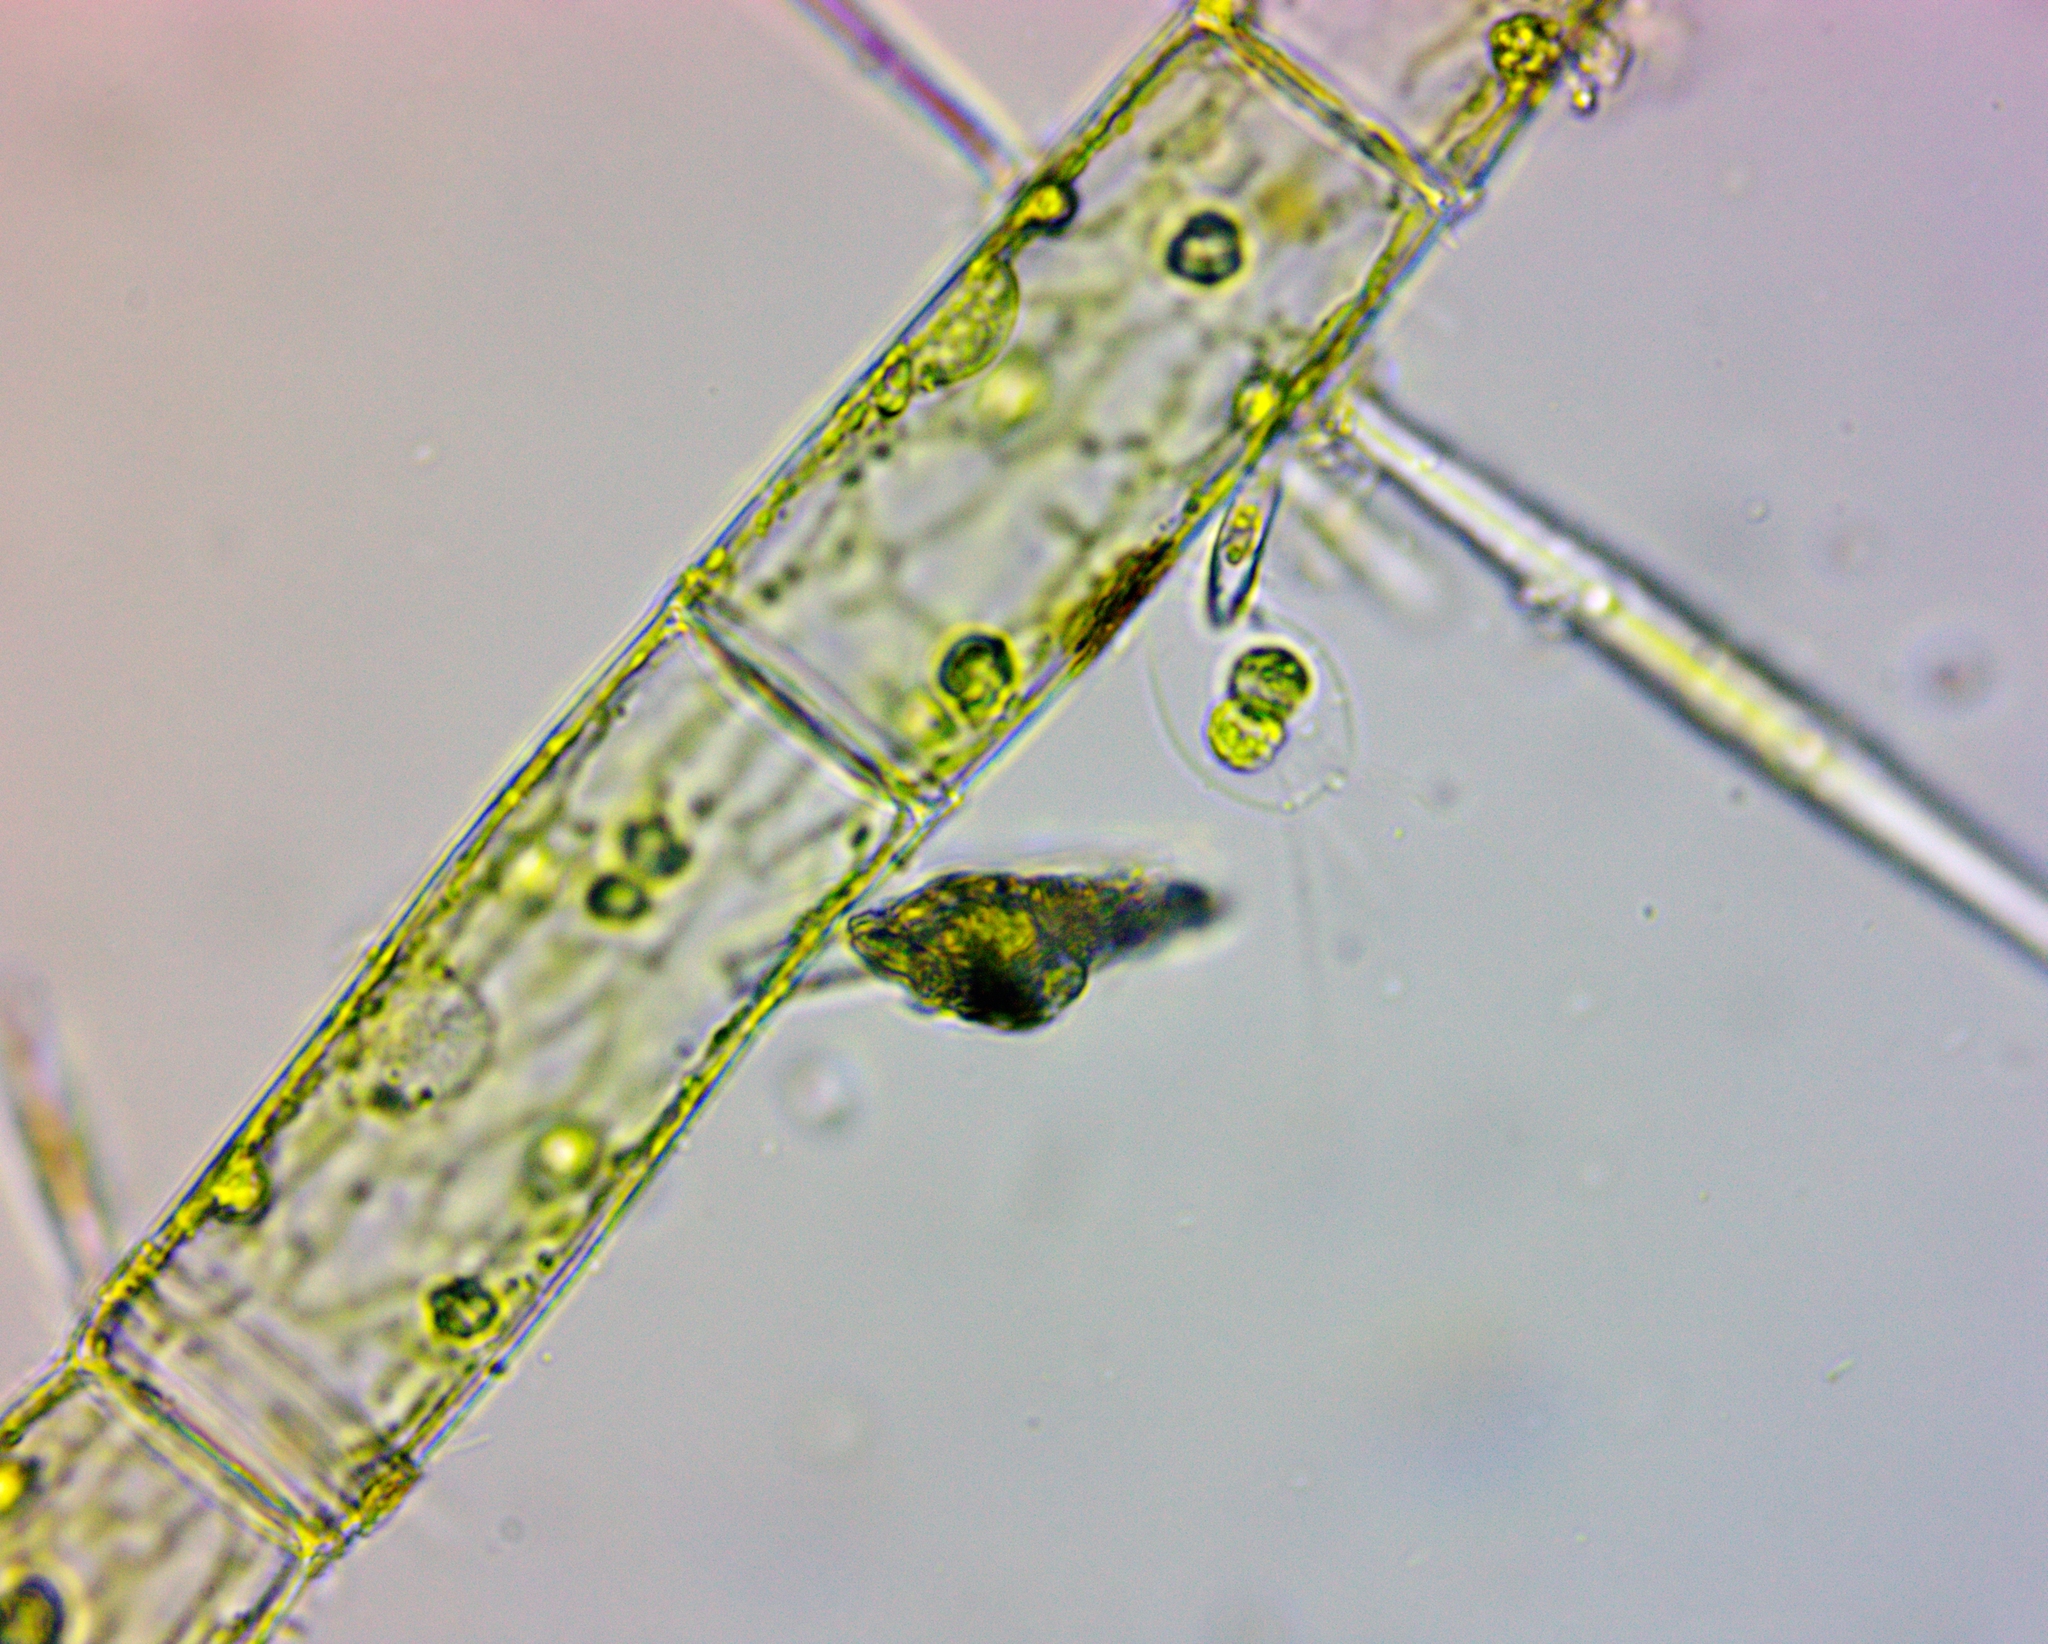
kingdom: Plantae
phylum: Chlorophyta
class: Chlorophyceae
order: Tetrasporales
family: Tetrasporaceae
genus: Apiocystis
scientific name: Apiocystis brauniana
